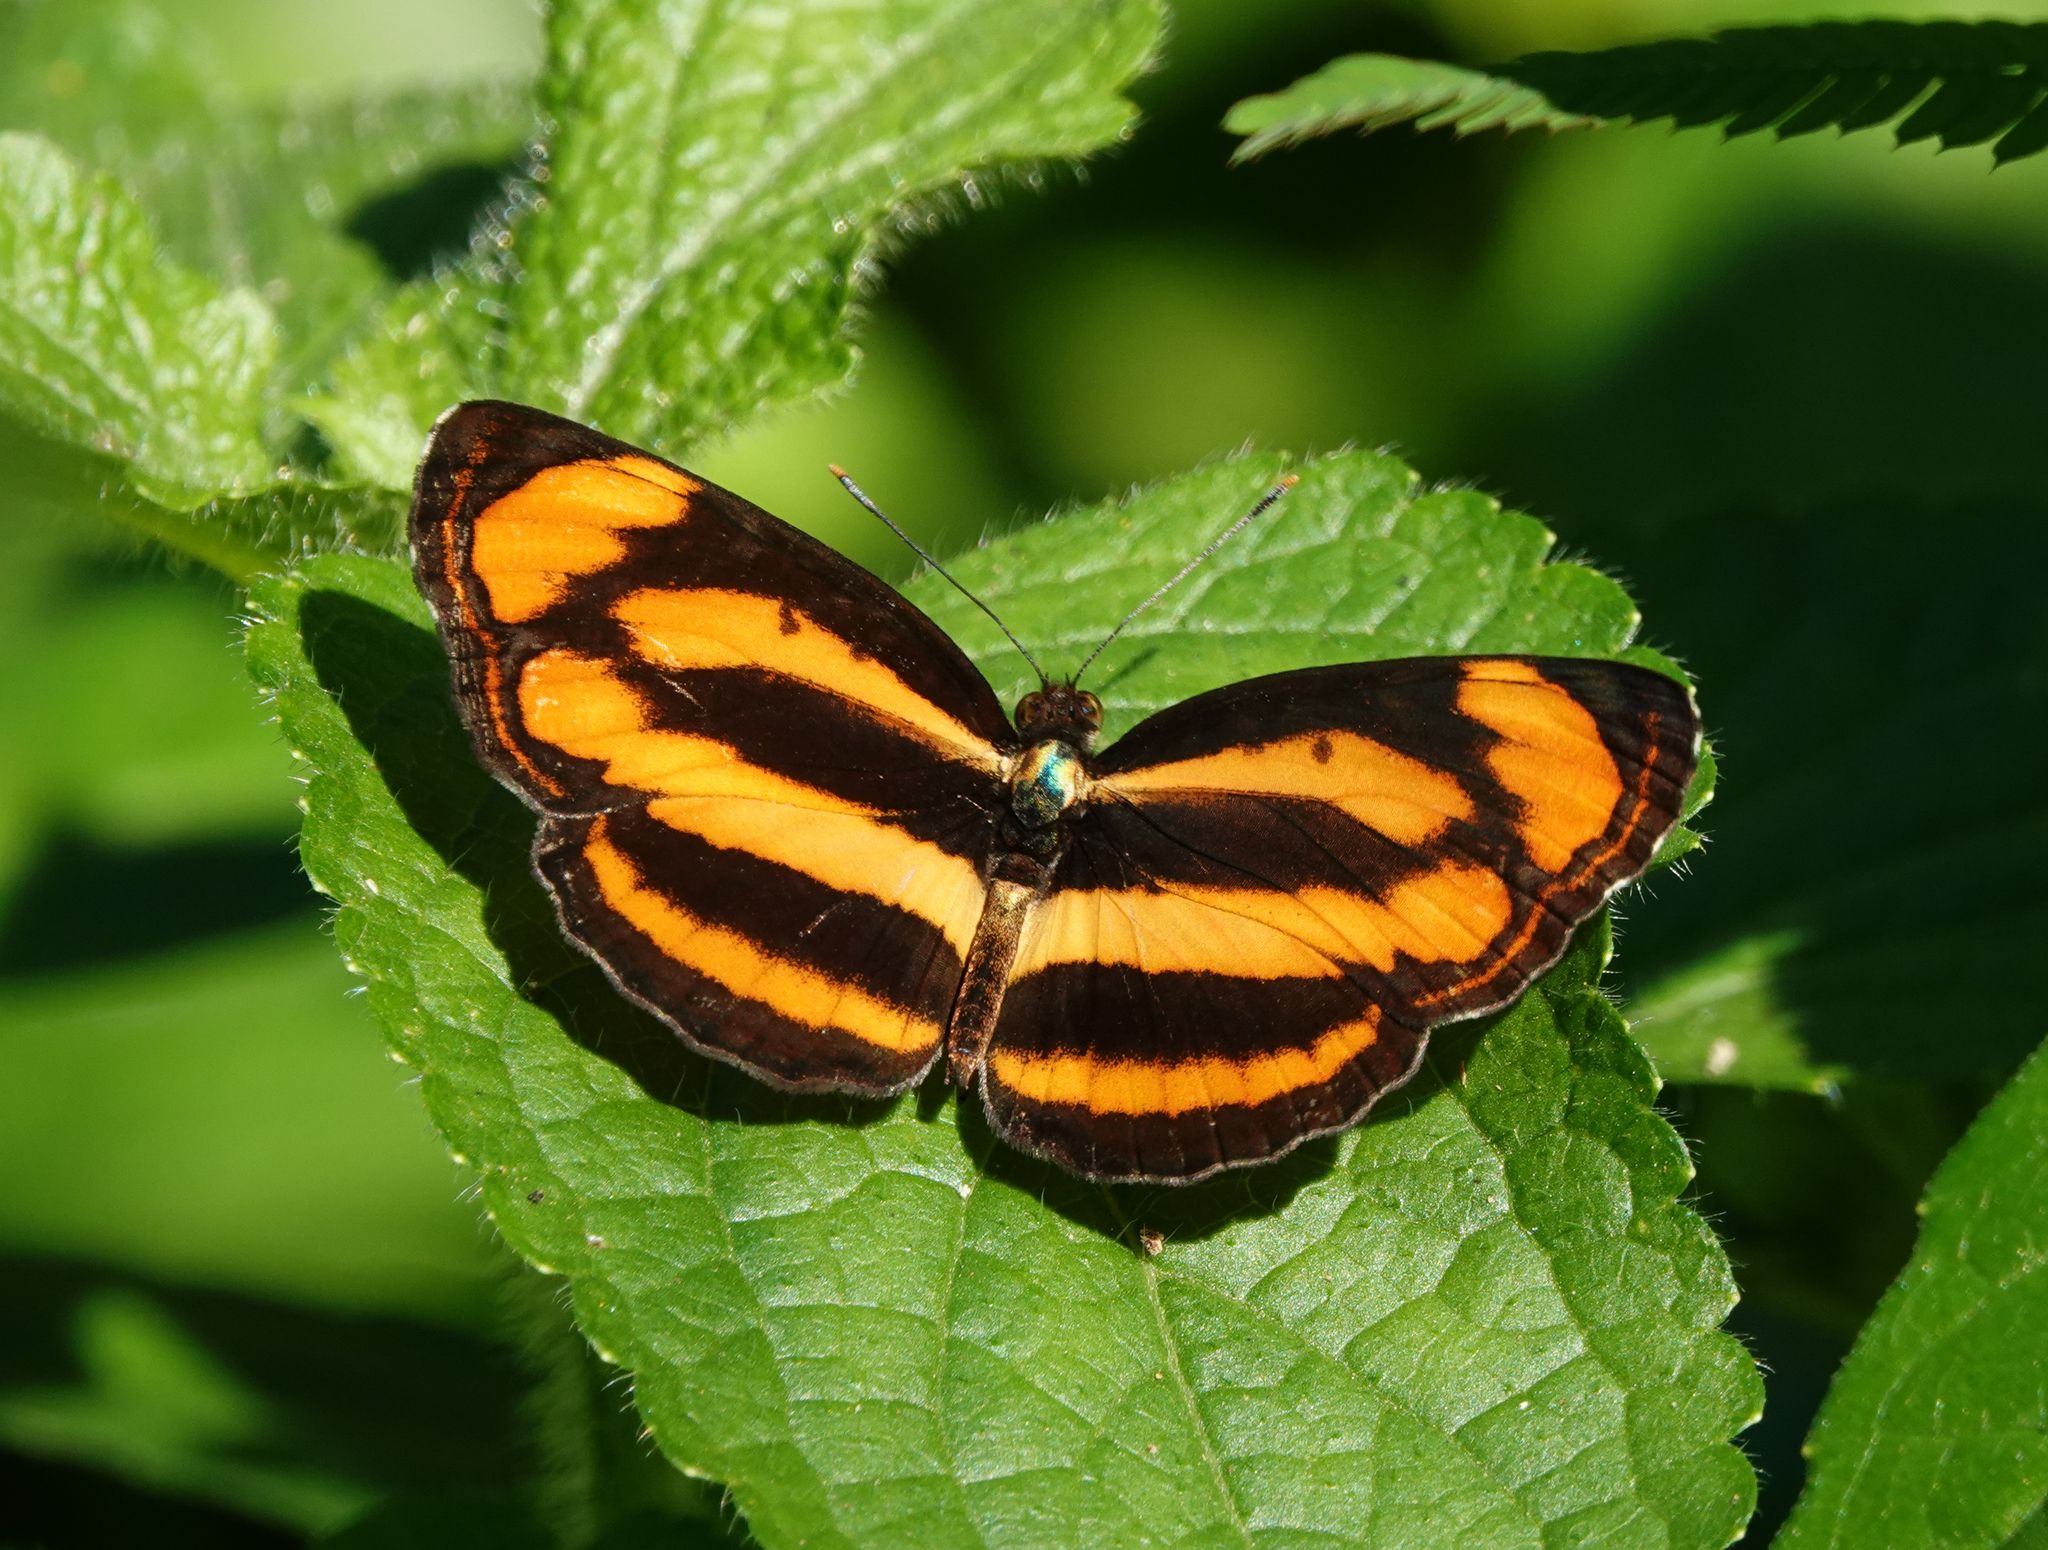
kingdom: Animalia
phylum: Arthropoda
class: Insecta
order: Lepidoptera
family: Nymphalidae
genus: Pantoporia
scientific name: Pantoporia hordonia
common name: Common lascar
